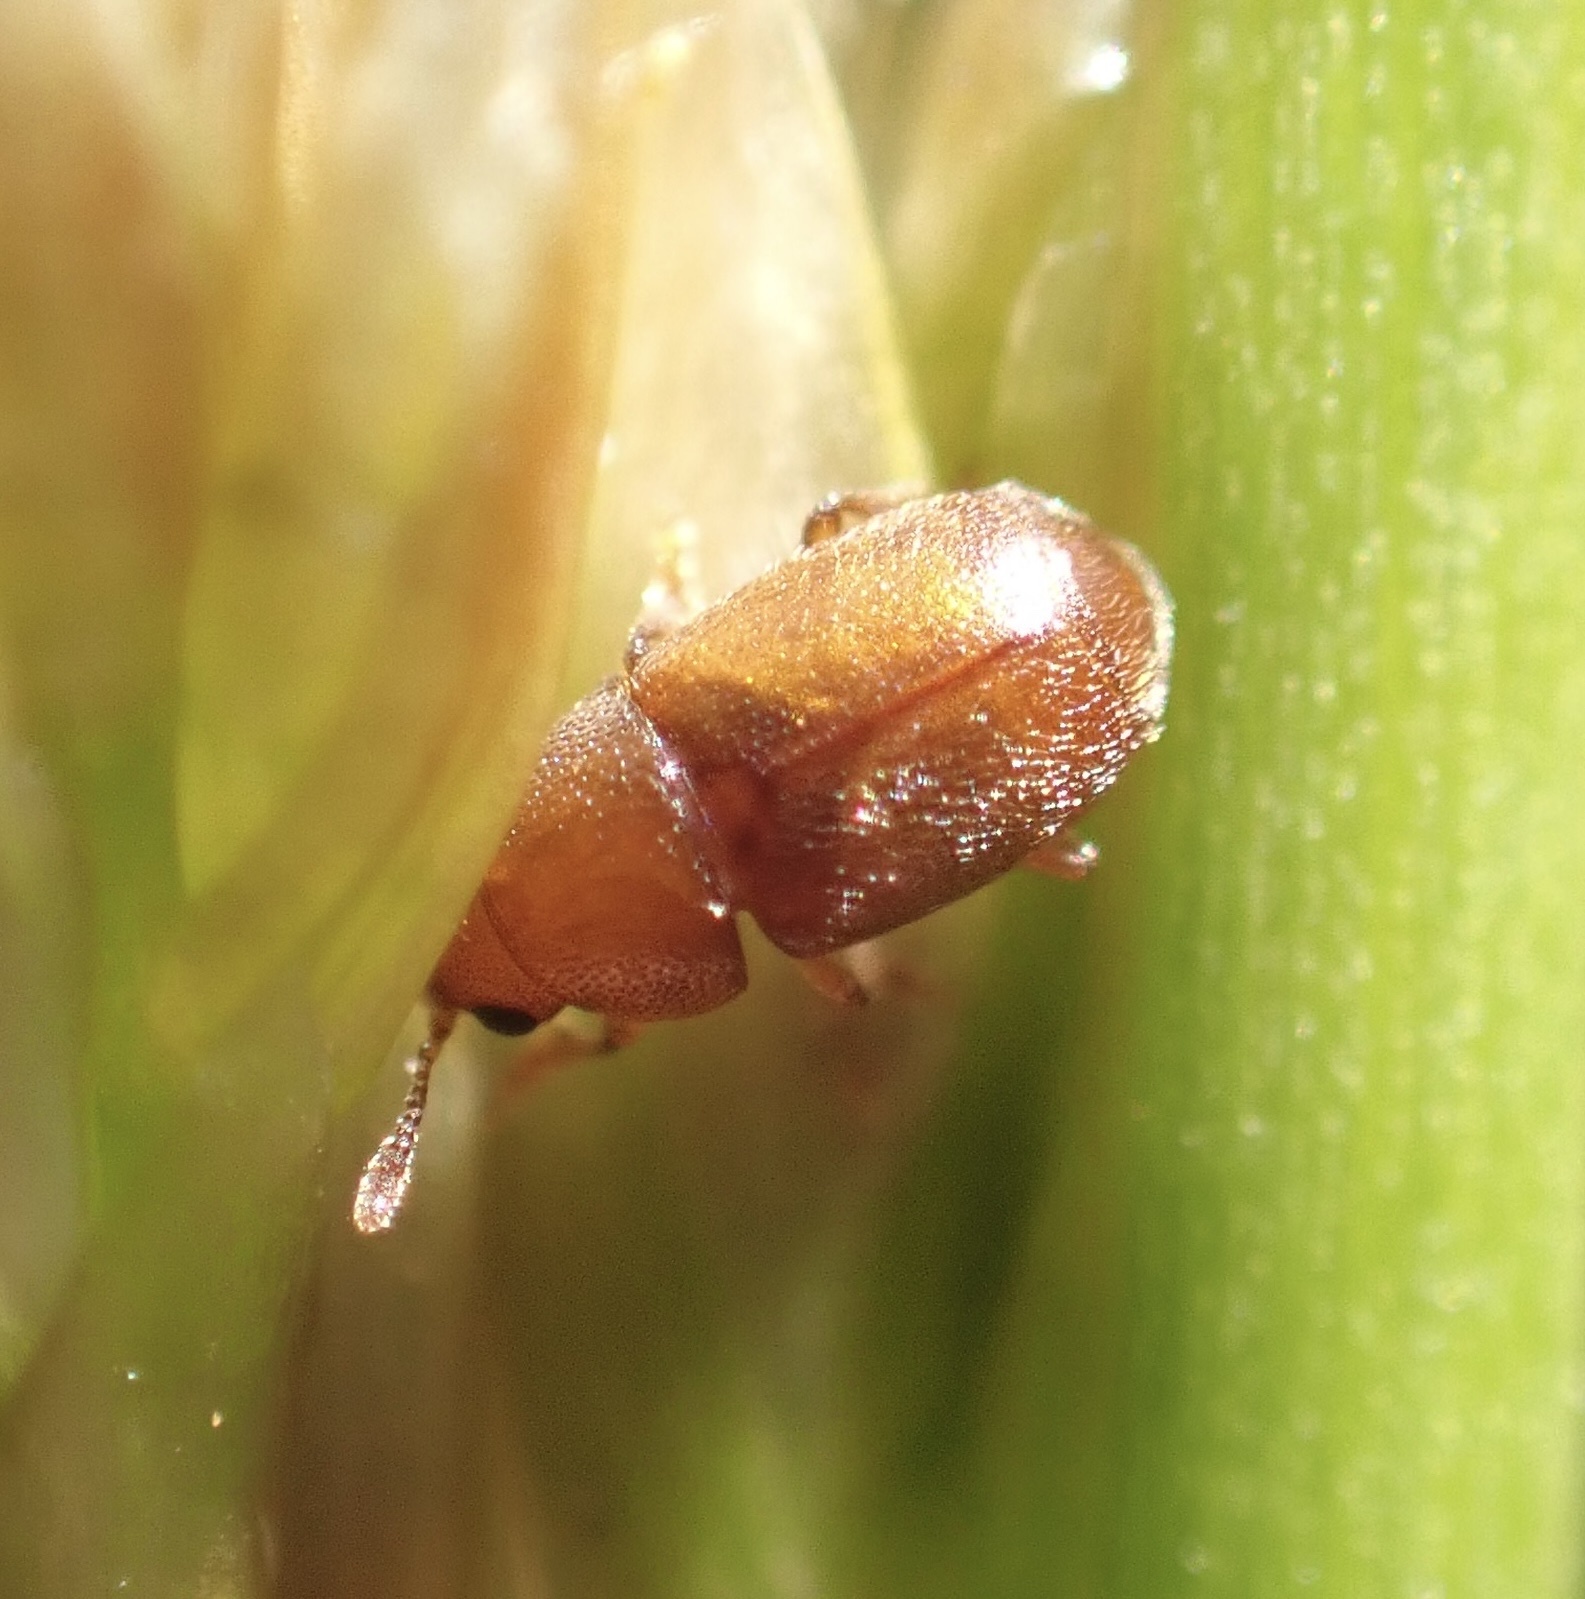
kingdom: Animalia
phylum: Arthropoda
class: Insecta
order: Coleoptera
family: Kateretidae
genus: Kateretes
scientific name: Kateretes rufilabris
